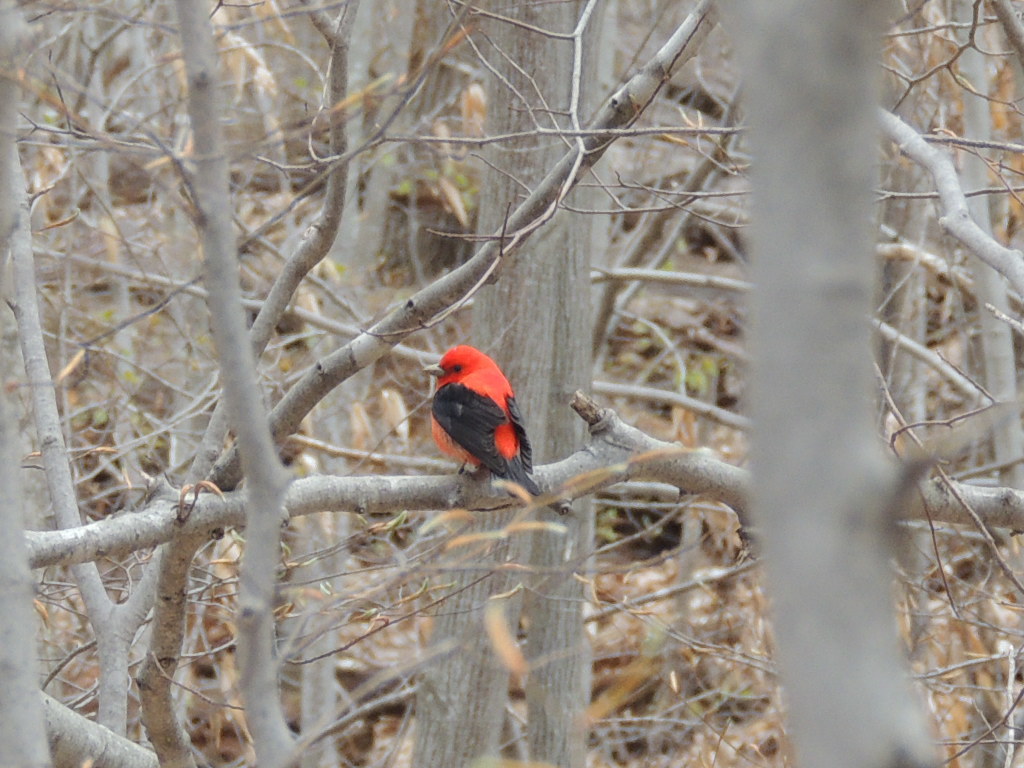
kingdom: Animalia
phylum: Chordata
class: Aves
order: Passeriformes
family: Cardinalidae
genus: Piranga
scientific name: Piranga olivacea
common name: Scarlet tanager
